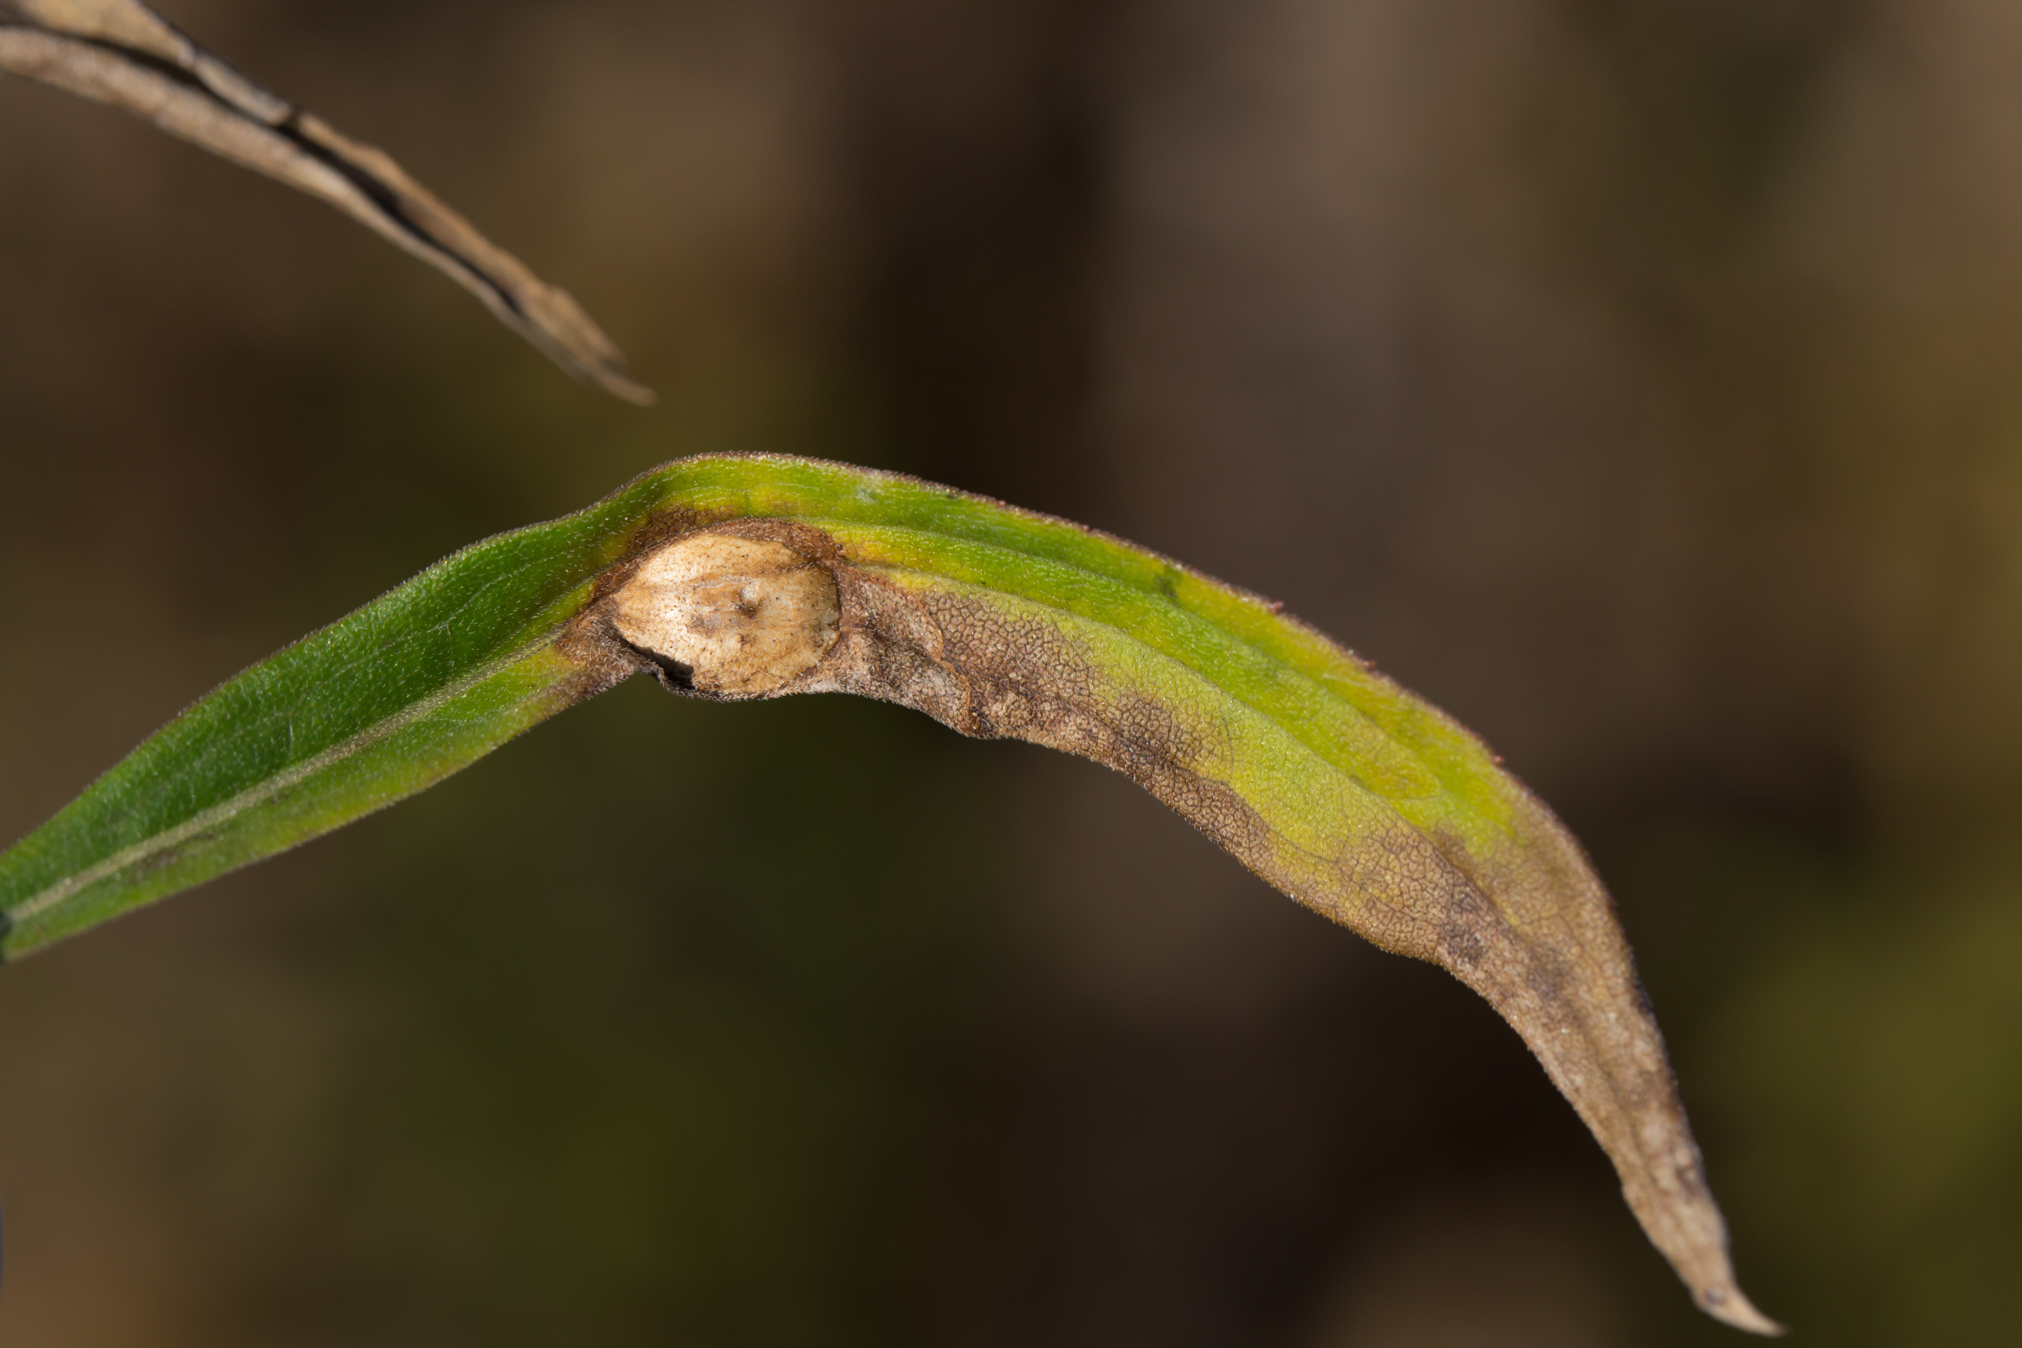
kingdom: Animalia
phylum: Arthropoda
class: Insecta
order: Diptera
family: Cecidomyiidae
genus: Asteromyia
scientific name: Asteromyia carbonifera
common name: Carbonifera goldenrod gall midge
